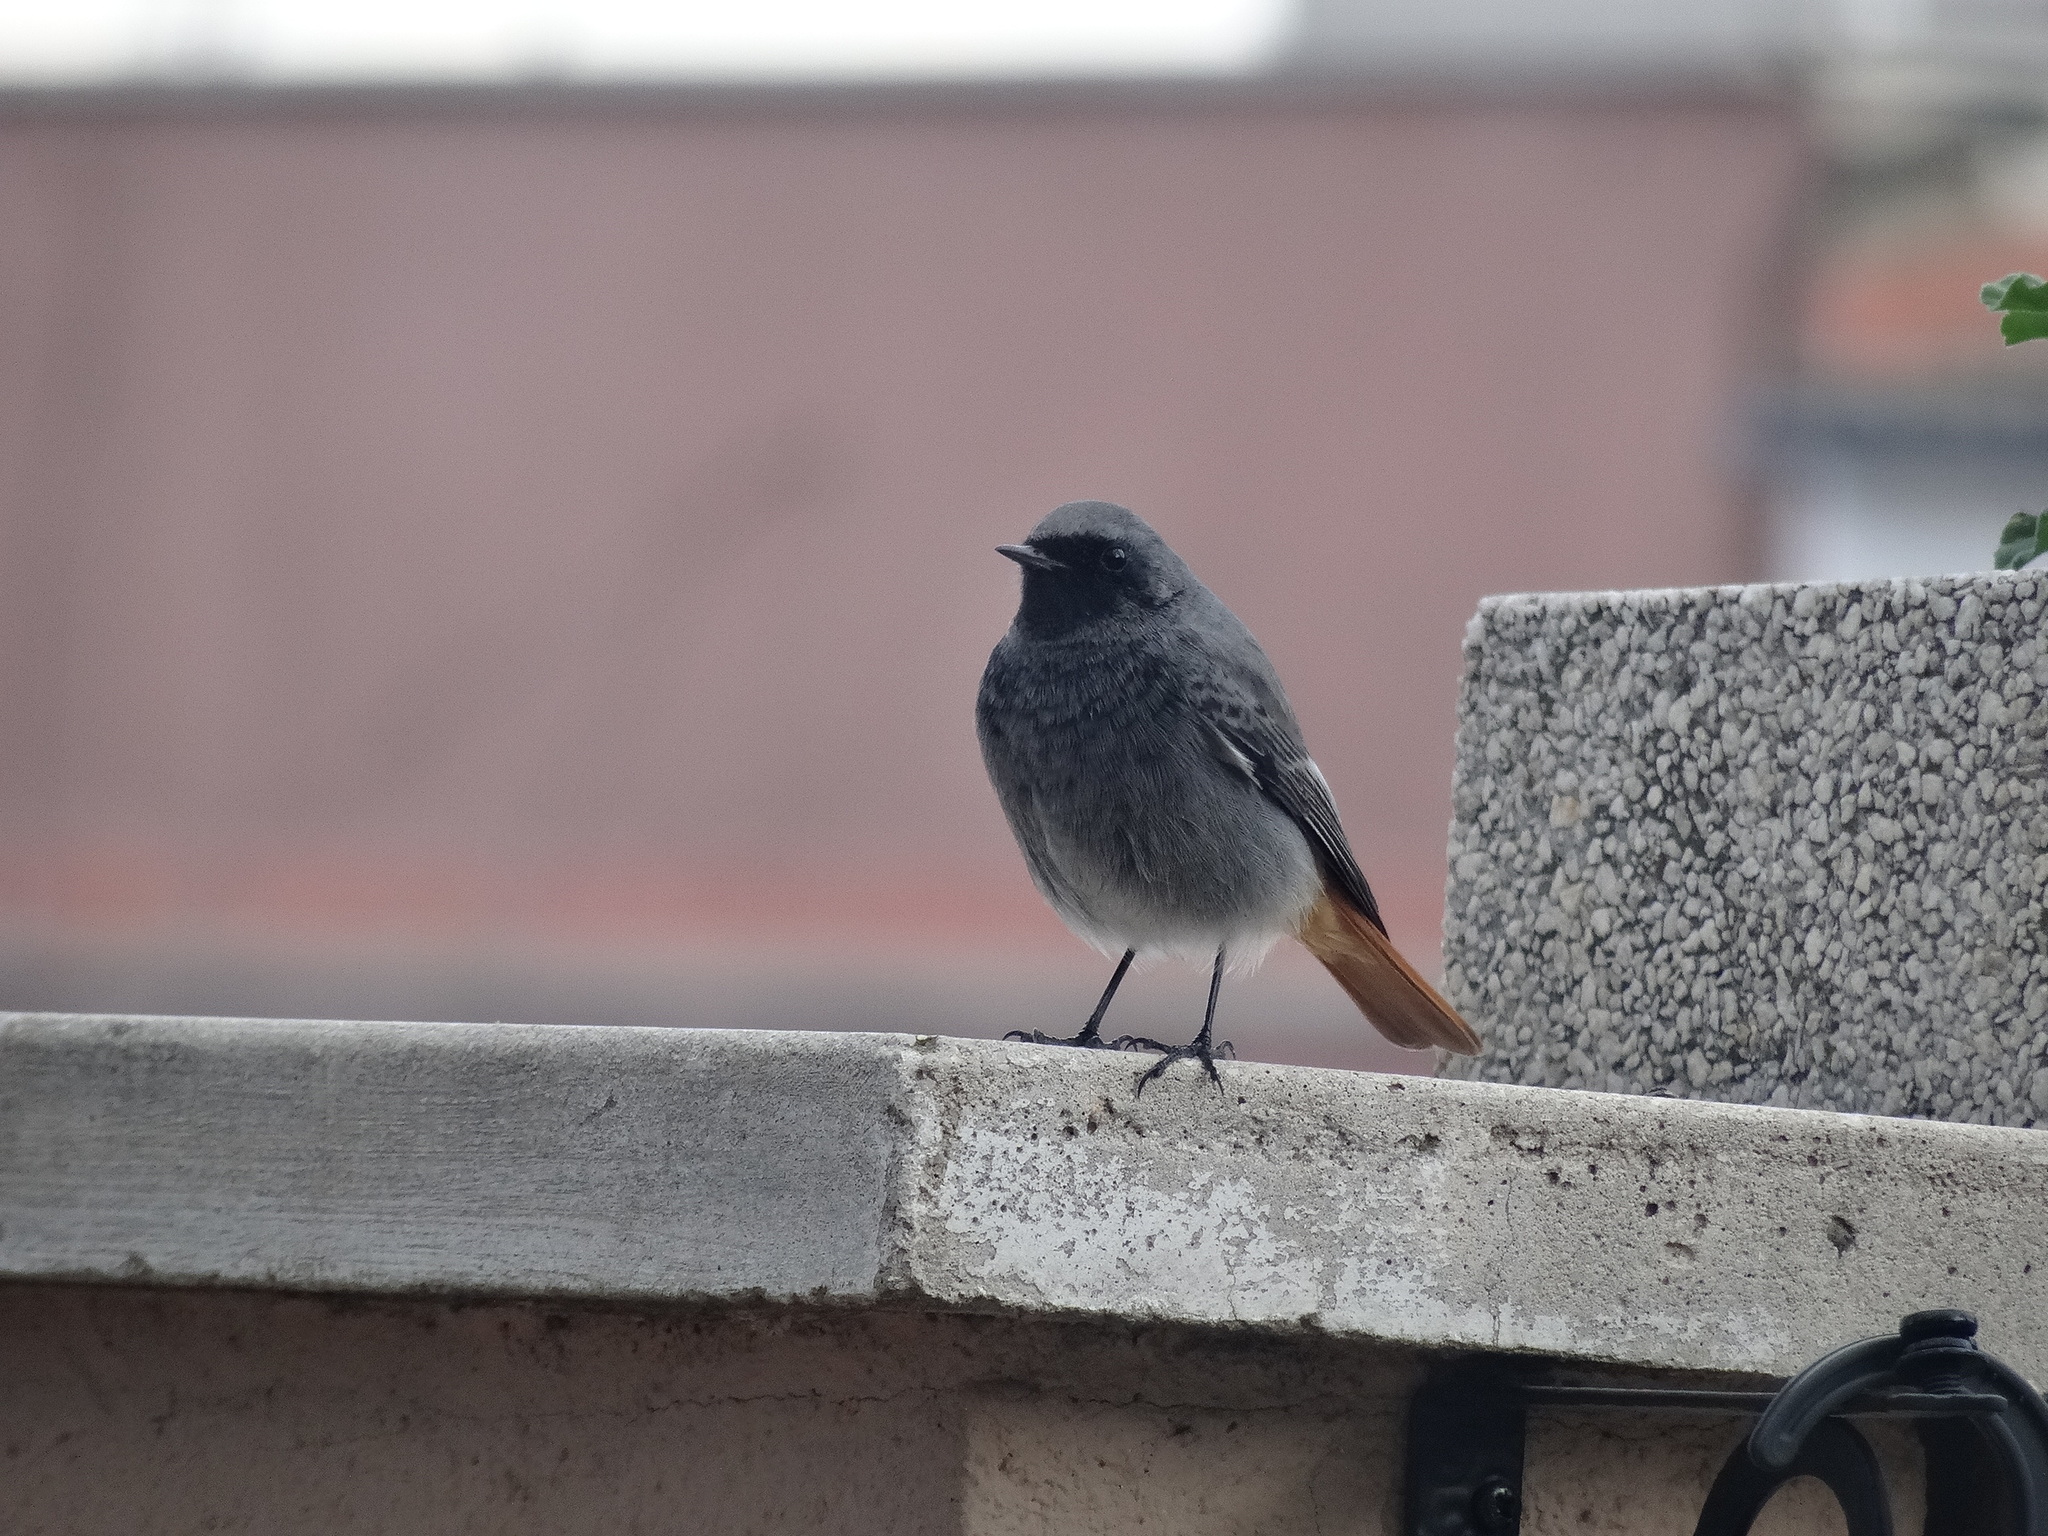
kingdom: Animalia
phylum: Chordata
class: Aves
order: Passeriformes
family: Muscicapidae
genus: Phoenicurus
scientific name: Phoenicurus ochruros
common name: Black redstart
